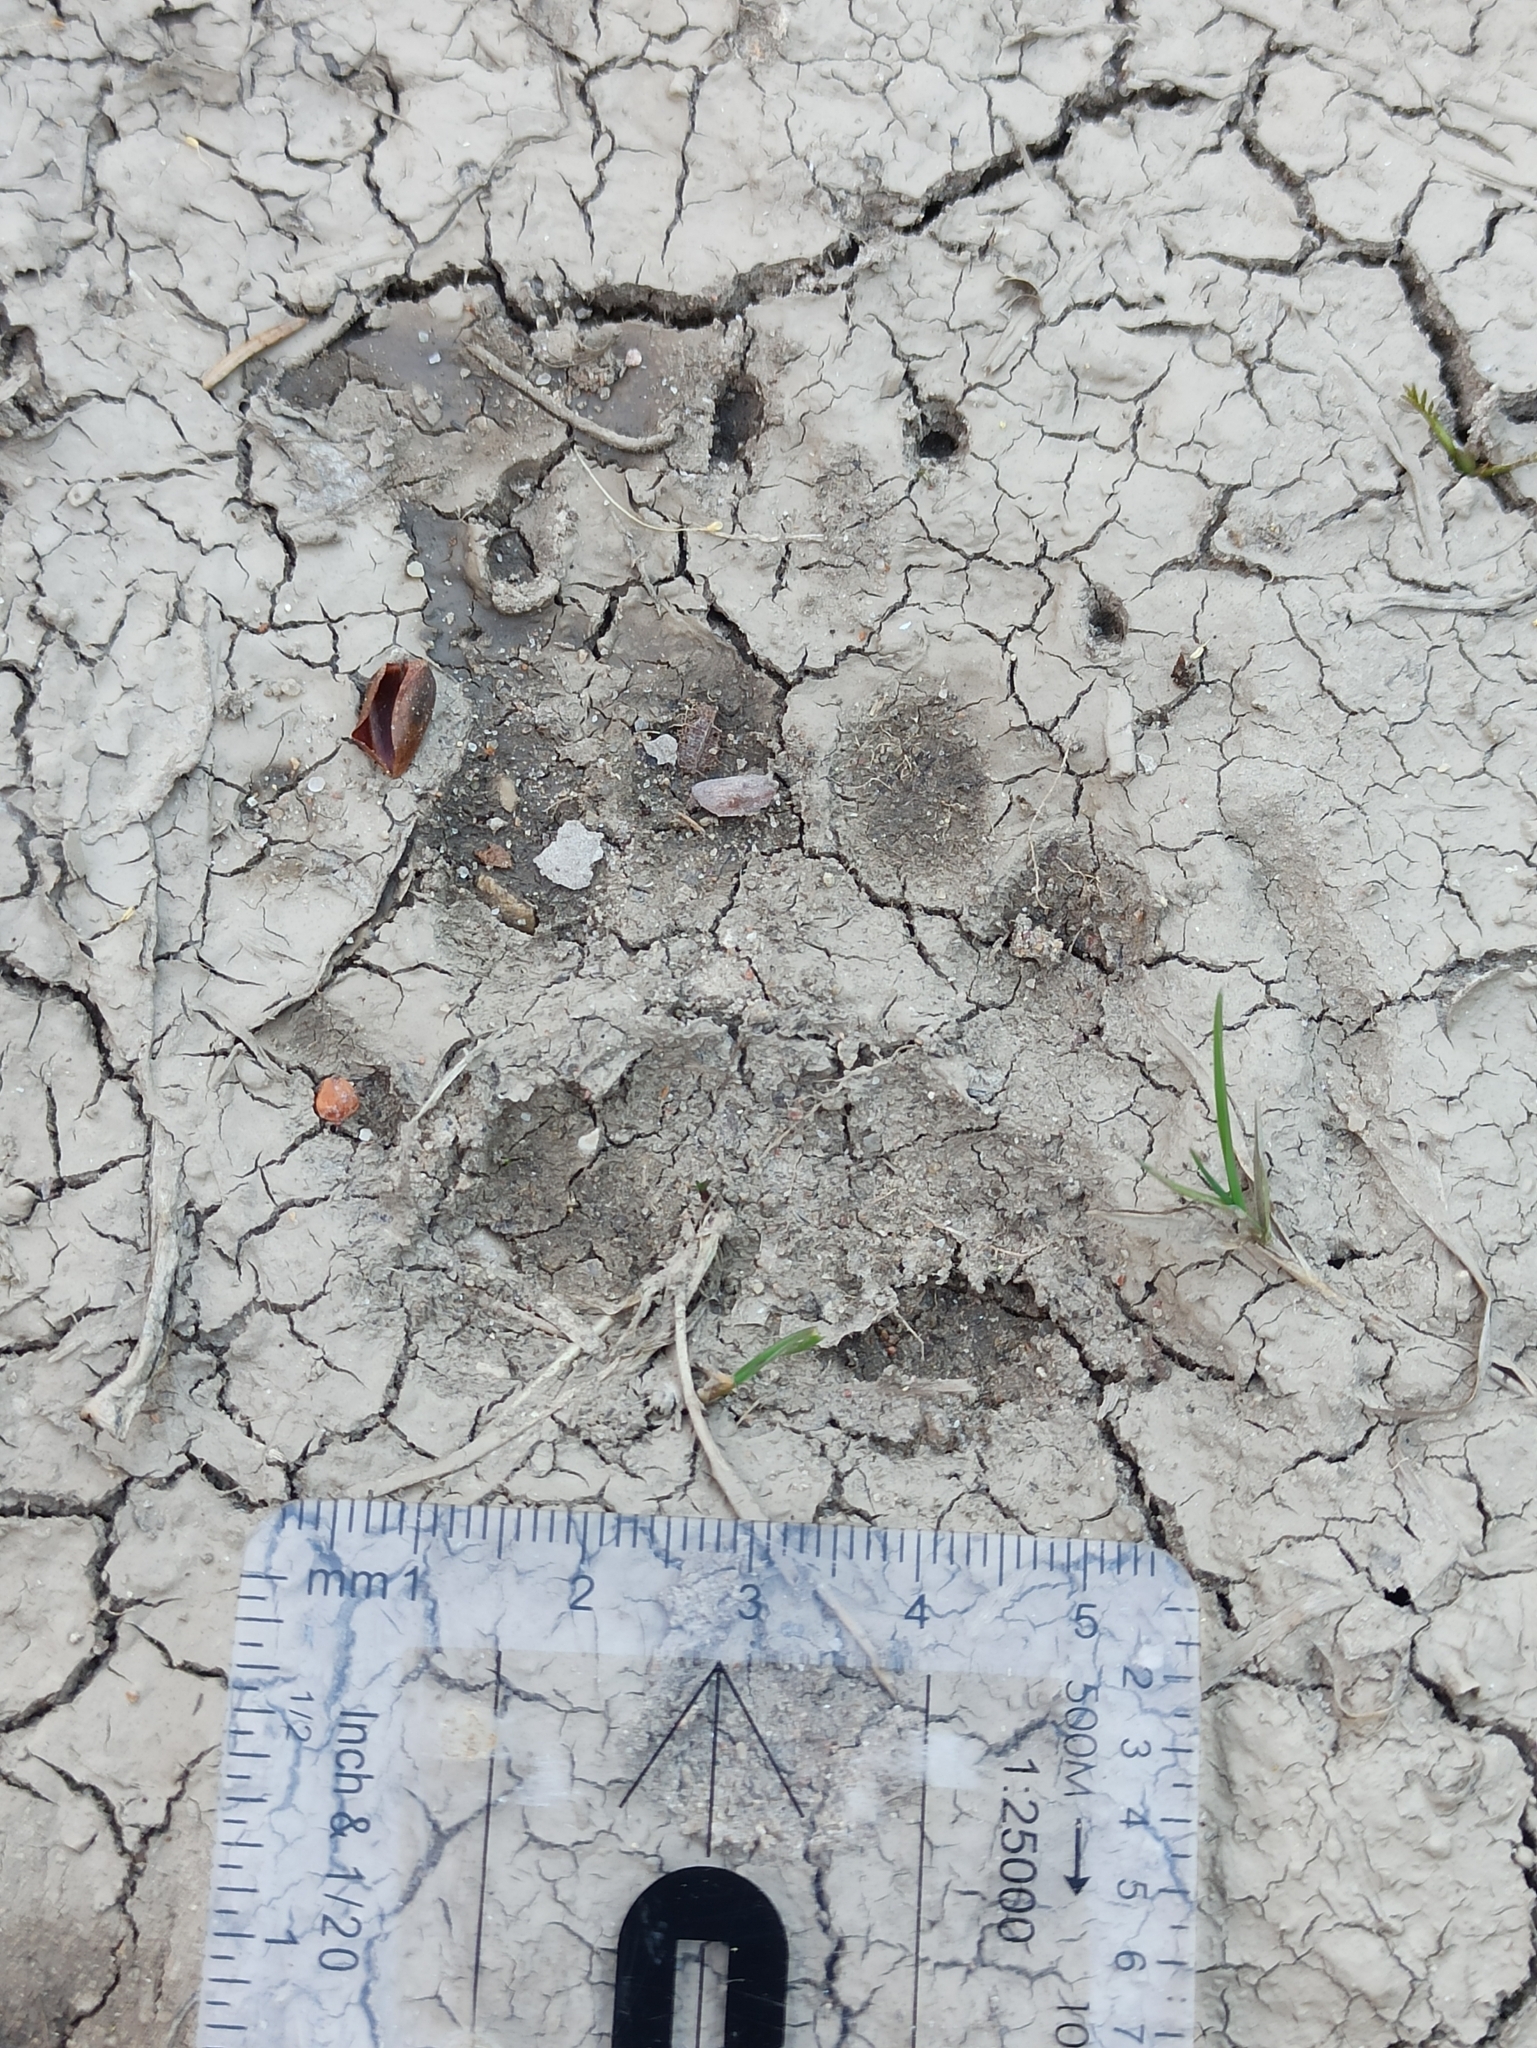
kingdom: Animalia
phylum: Chordata
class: Mammalia
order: Carnivora
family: Mustelidae
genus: Meles
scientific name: Meles meles
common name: Eurasian badger
